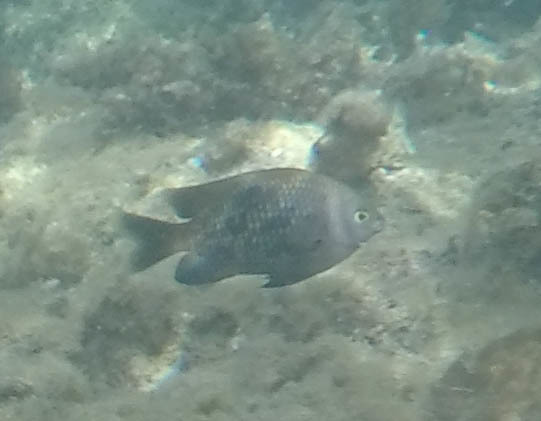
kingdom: Animalia
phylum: Chordata
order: Perciformes
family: Pomacentridae
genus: Stegastes
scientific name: Stegastes fasciolatus
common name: Pacific gregory
